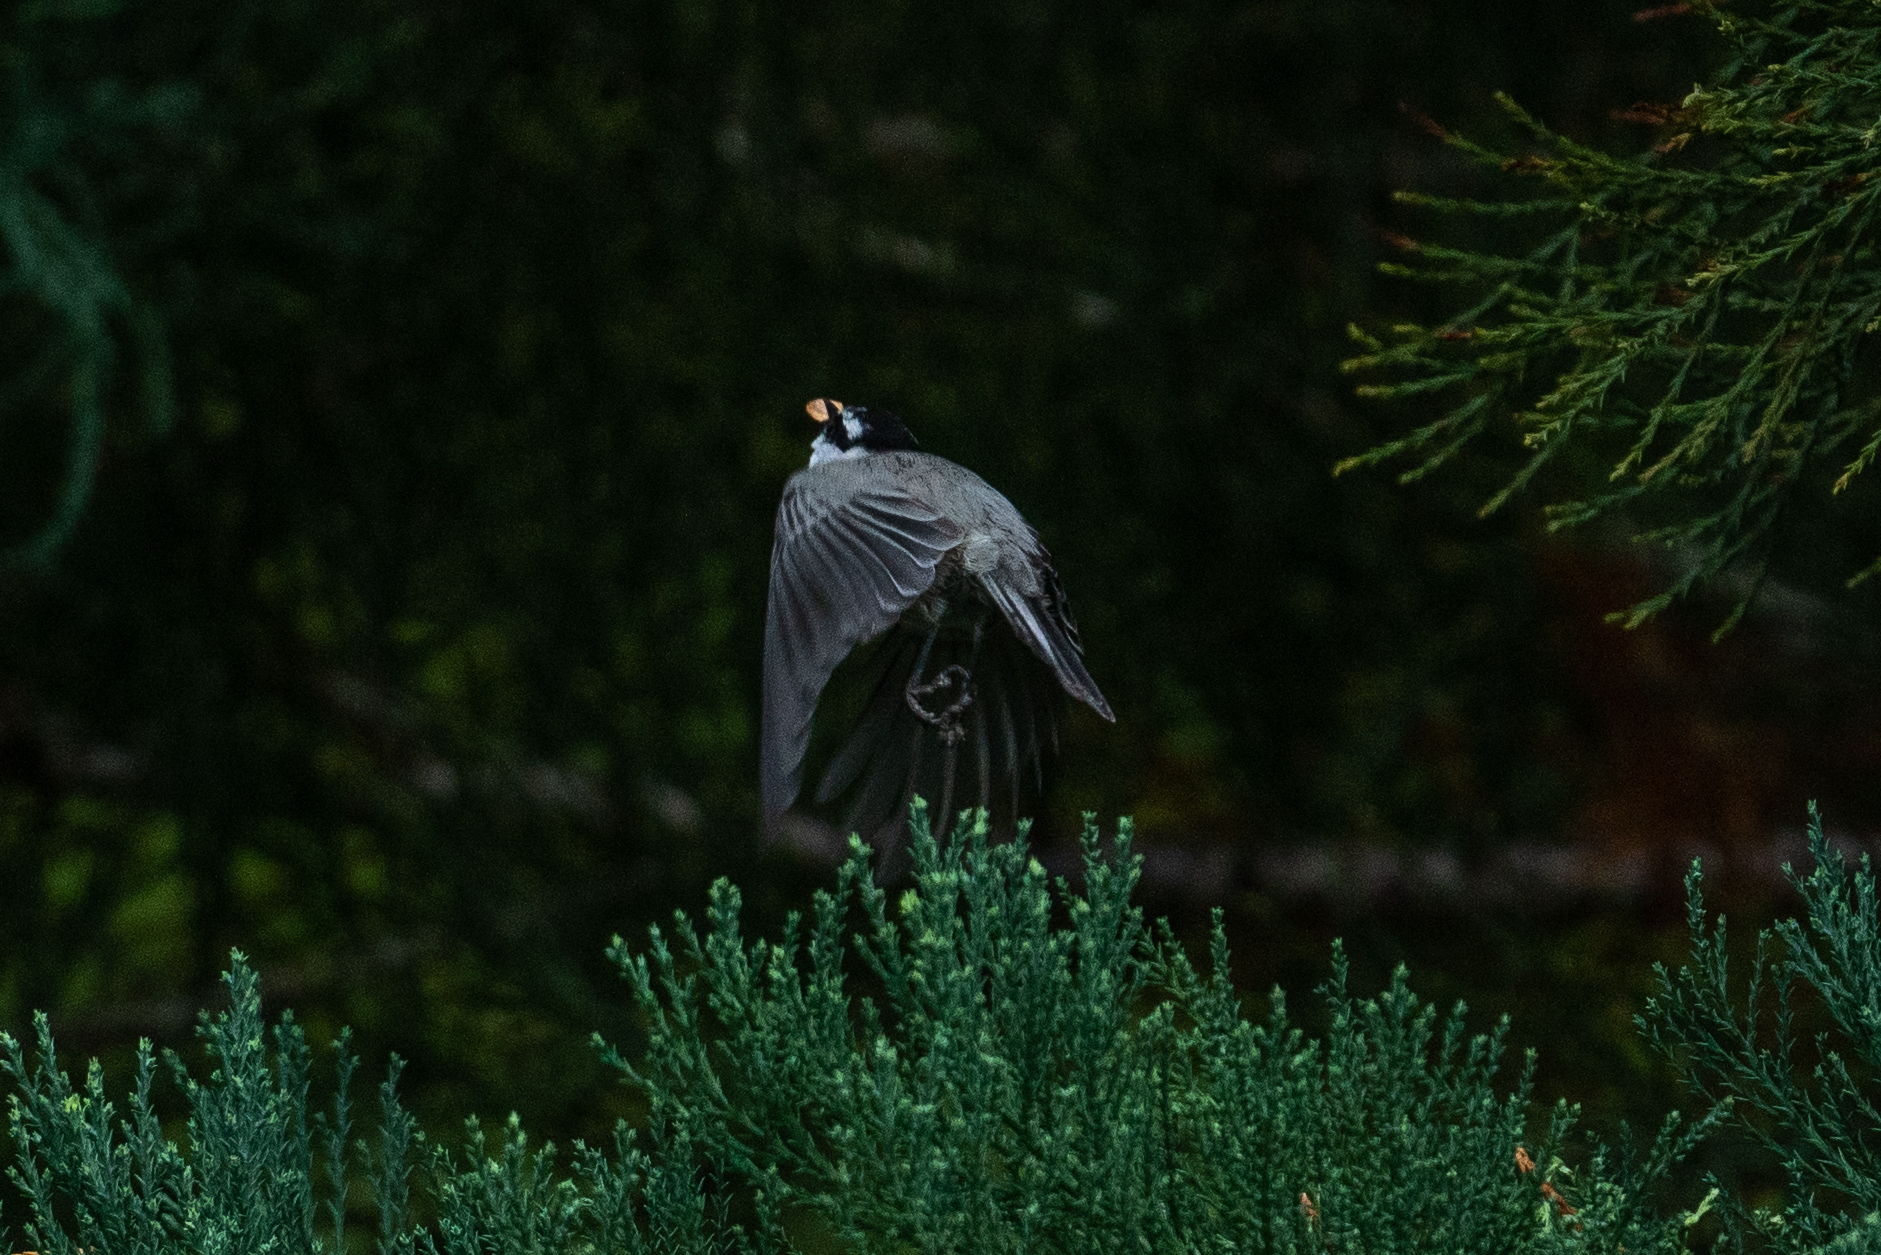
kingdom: Animalia
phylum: Chordata
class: Aves
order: Passeriformes
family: Paridae
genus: Poecile
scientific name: Poecile gambeli
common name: Mountain chickadee
